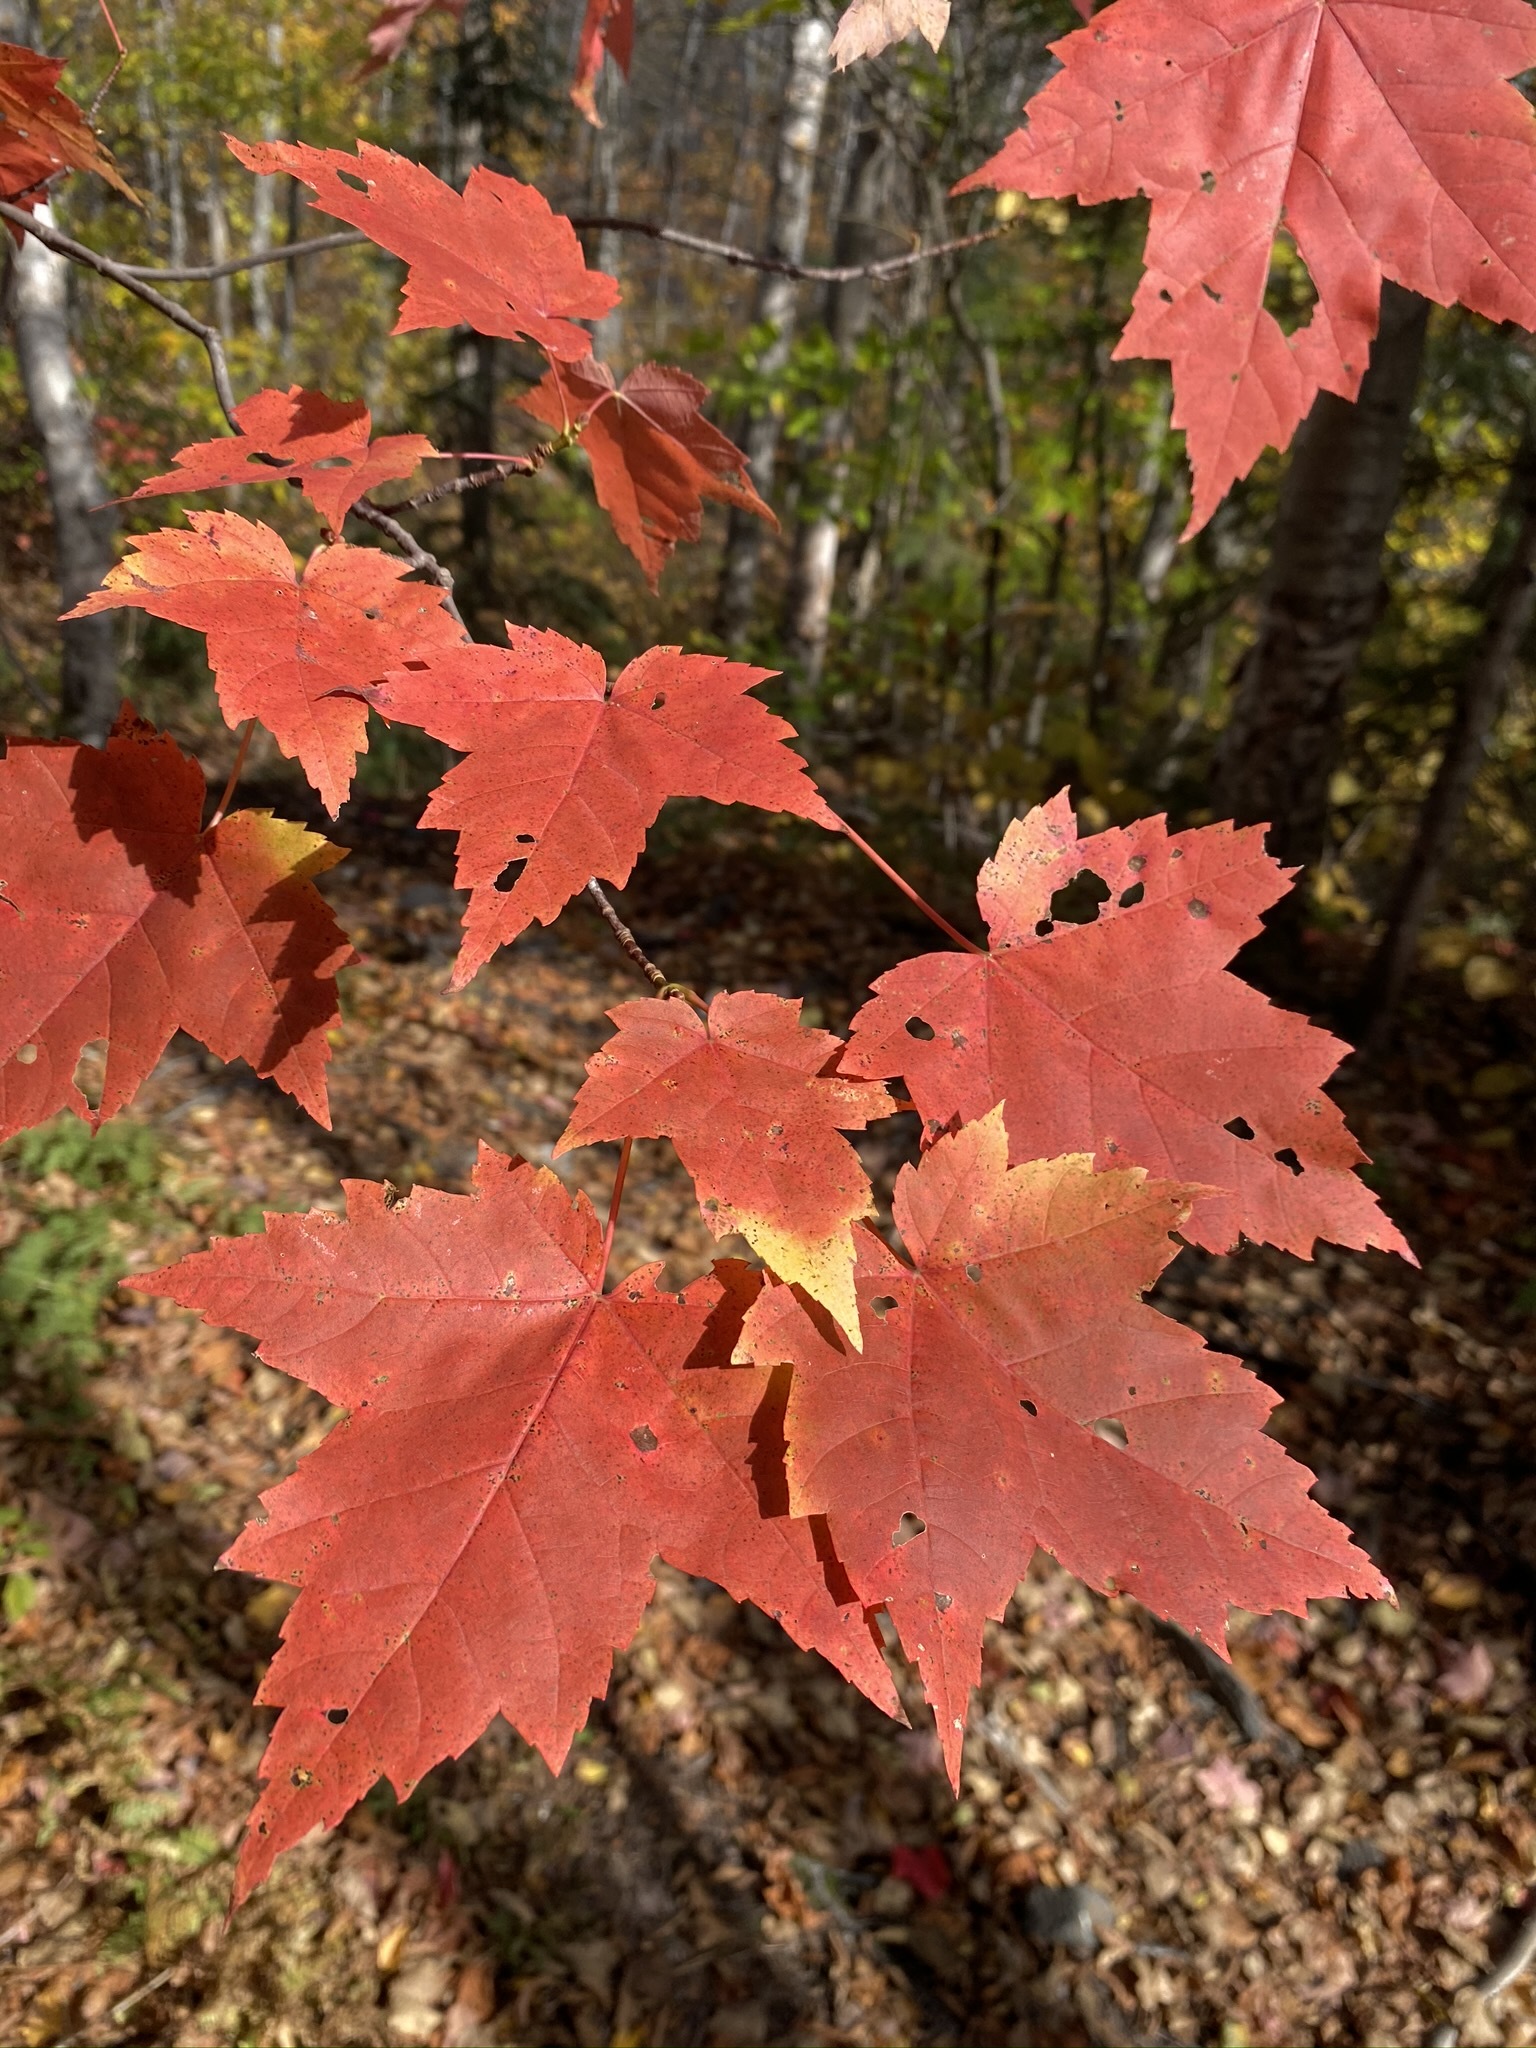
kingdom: Plantae
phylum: Tracheophyta
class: Magnoliopsida
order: Sapindales
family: Sapindaceae
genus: Acer
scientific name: Acer rubrum
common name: Red maple
